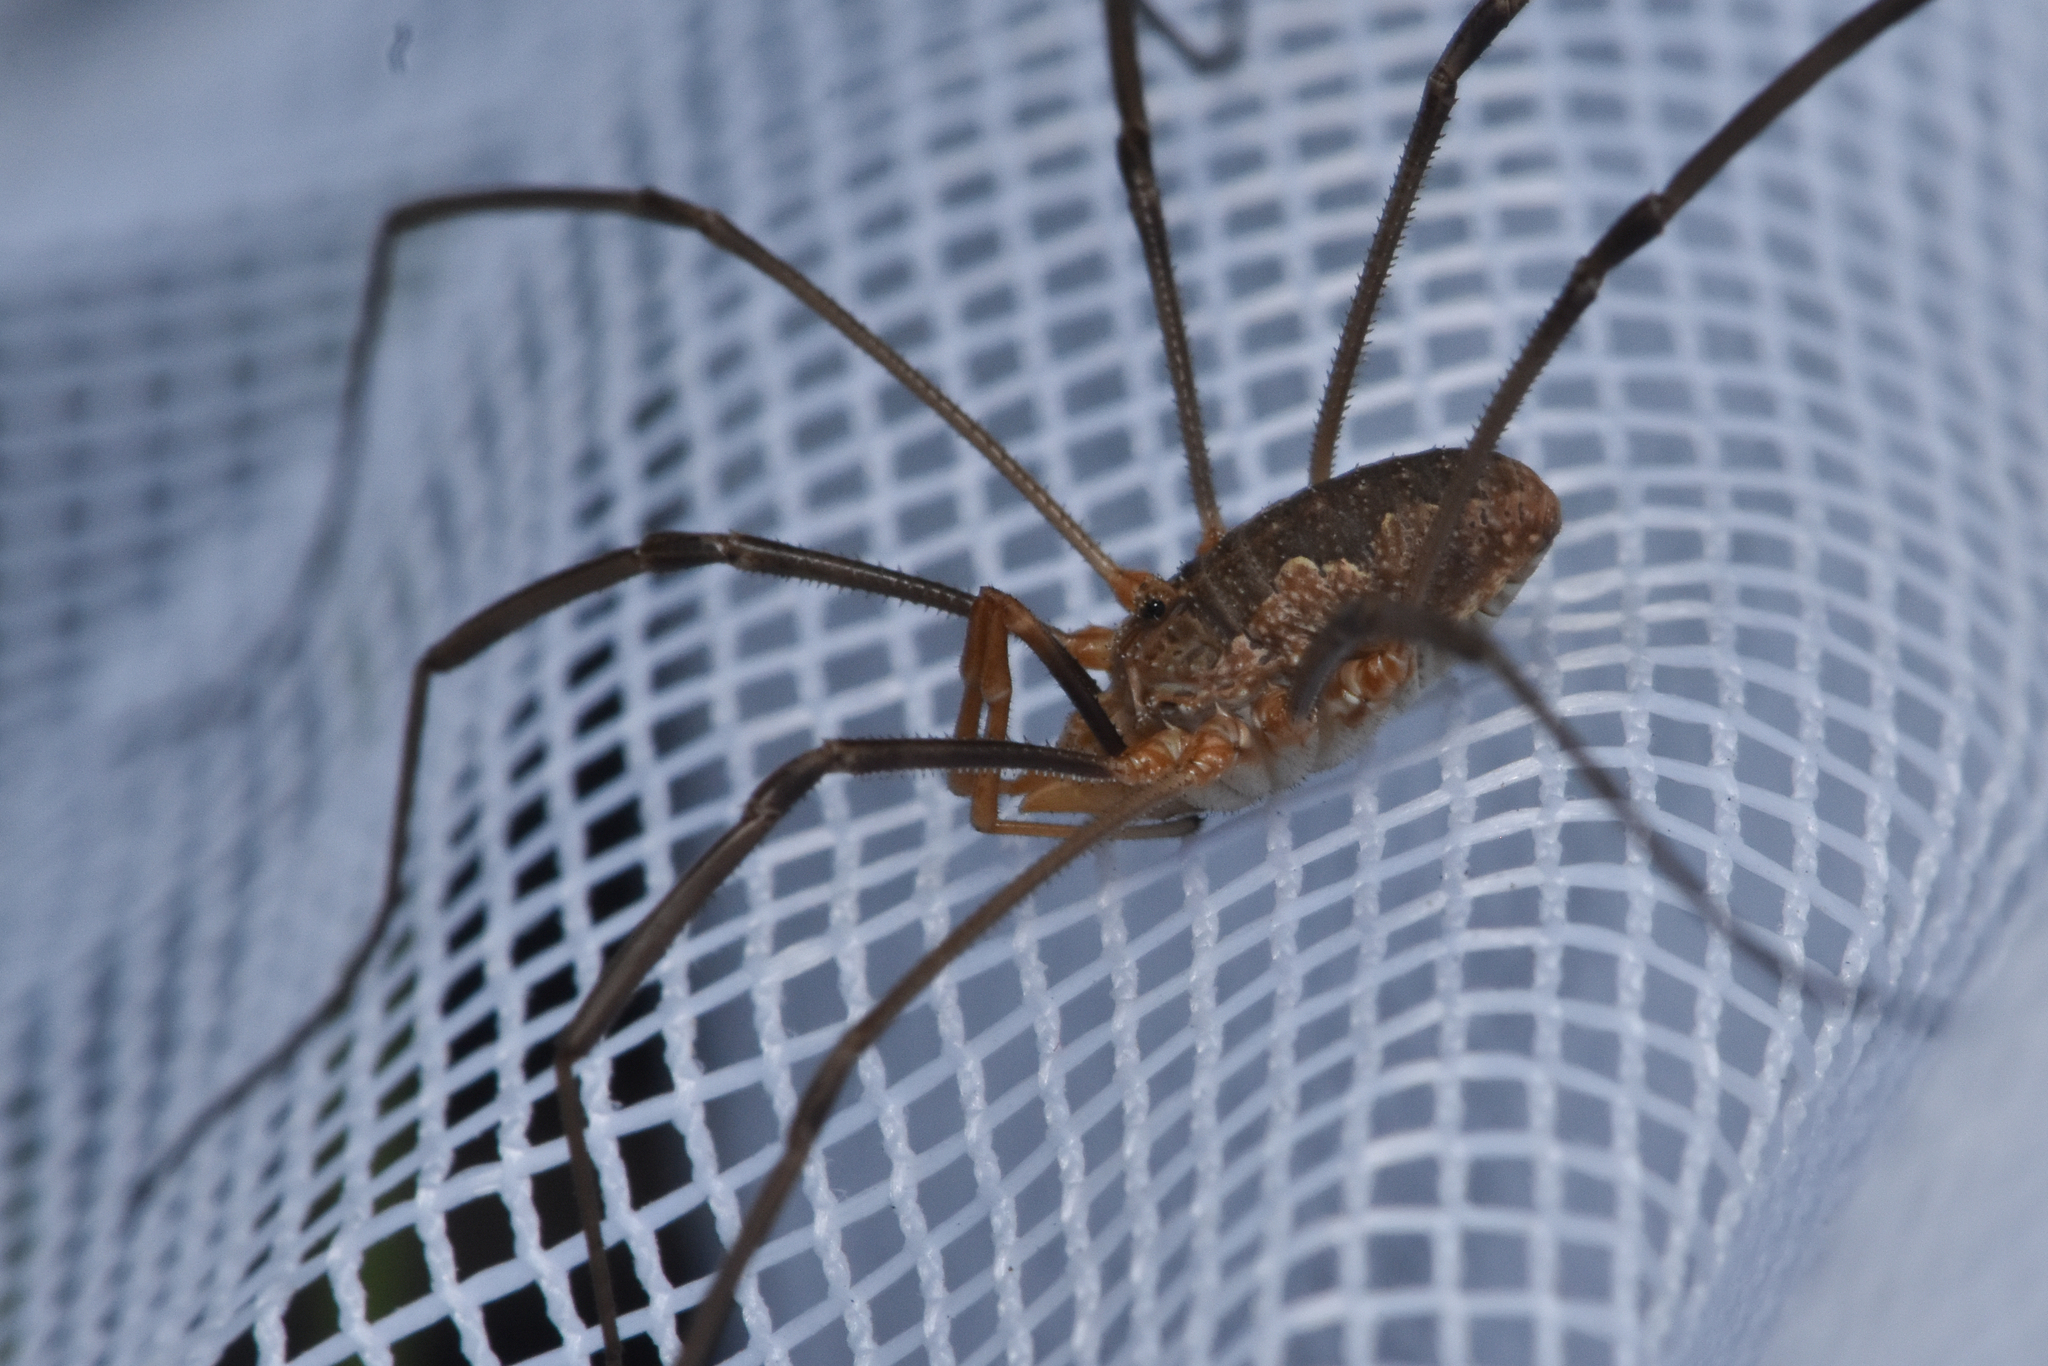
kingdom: Animalia
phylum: Arthropoda
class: Arachnida
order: Opiliones
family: Phalangiidae
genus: Phalangium
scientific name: Phalangium opilio
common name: Daddy longleg
